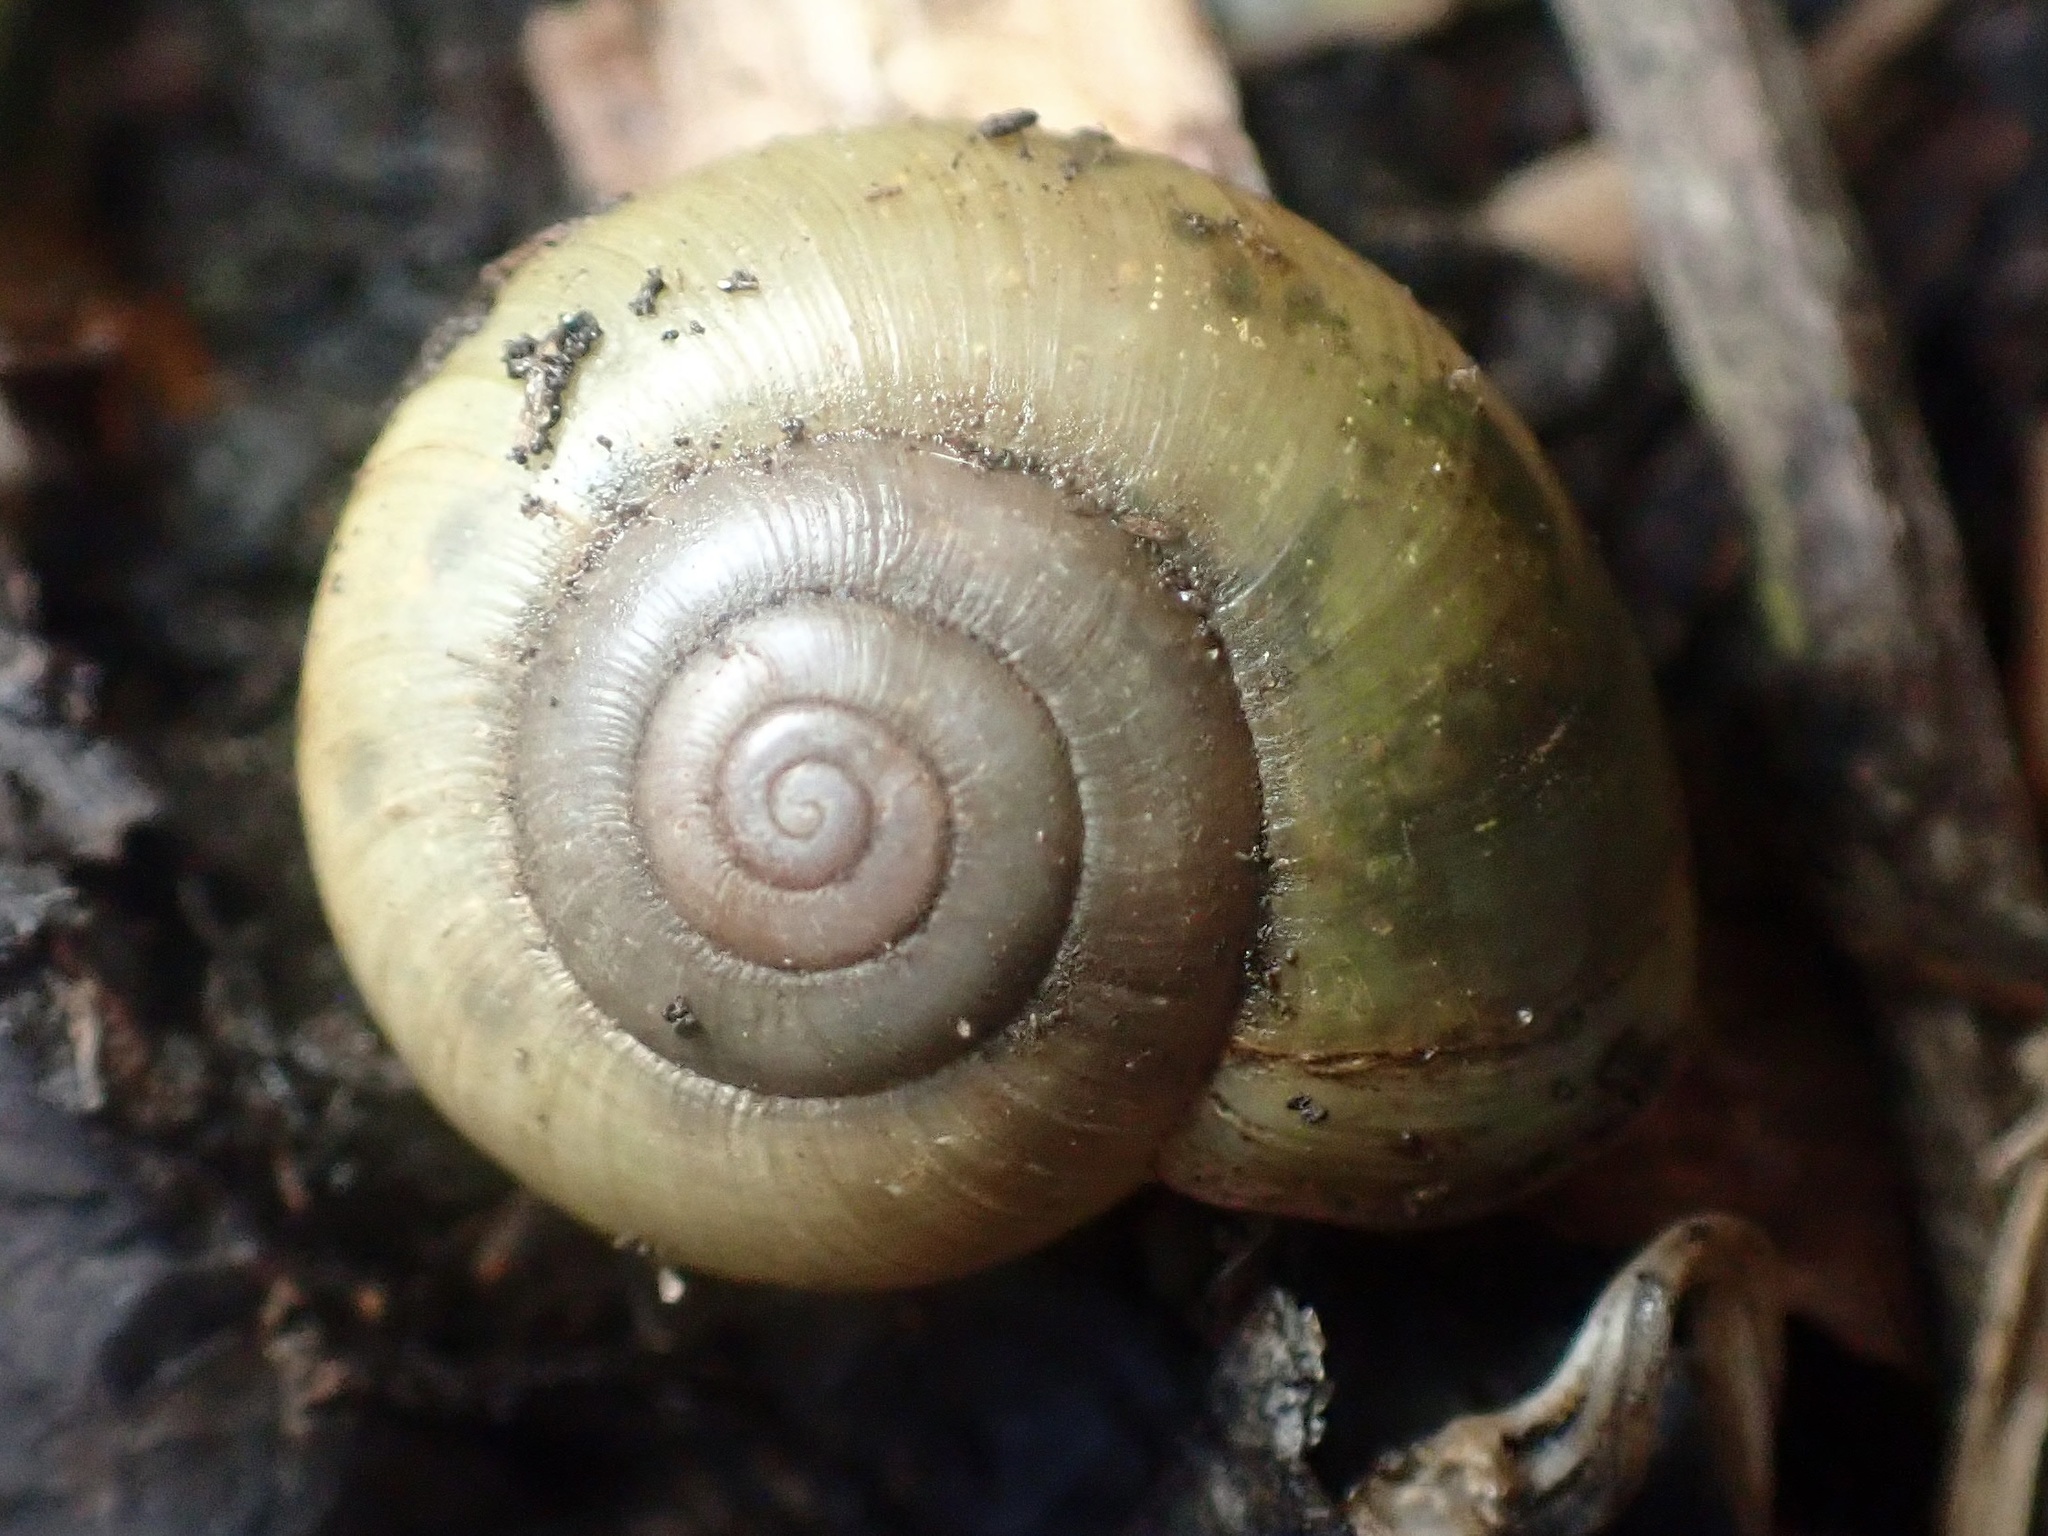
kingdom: Animalia
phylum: Mollusca
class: Gastropoda
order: Stylommatophora
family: Haplotrematidae
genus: Haplotrema
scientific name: Haplotrema minimum
